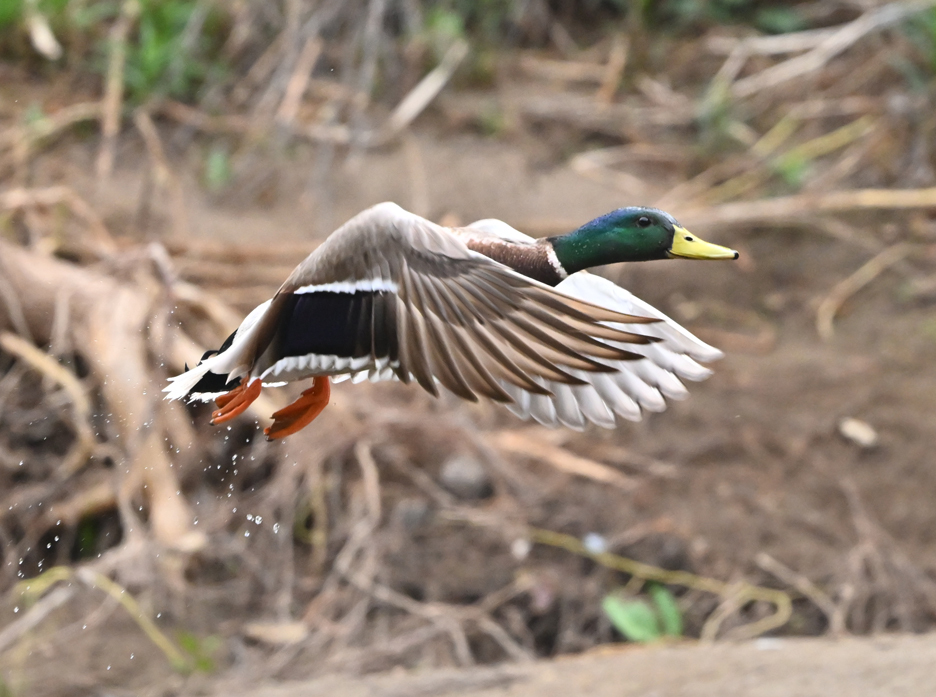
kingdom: Animalia
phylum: Chordata
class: Aves
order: Anseriformes
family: Anatidae
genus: Anas
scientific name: Anas platyrhynchos
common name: Mallard
